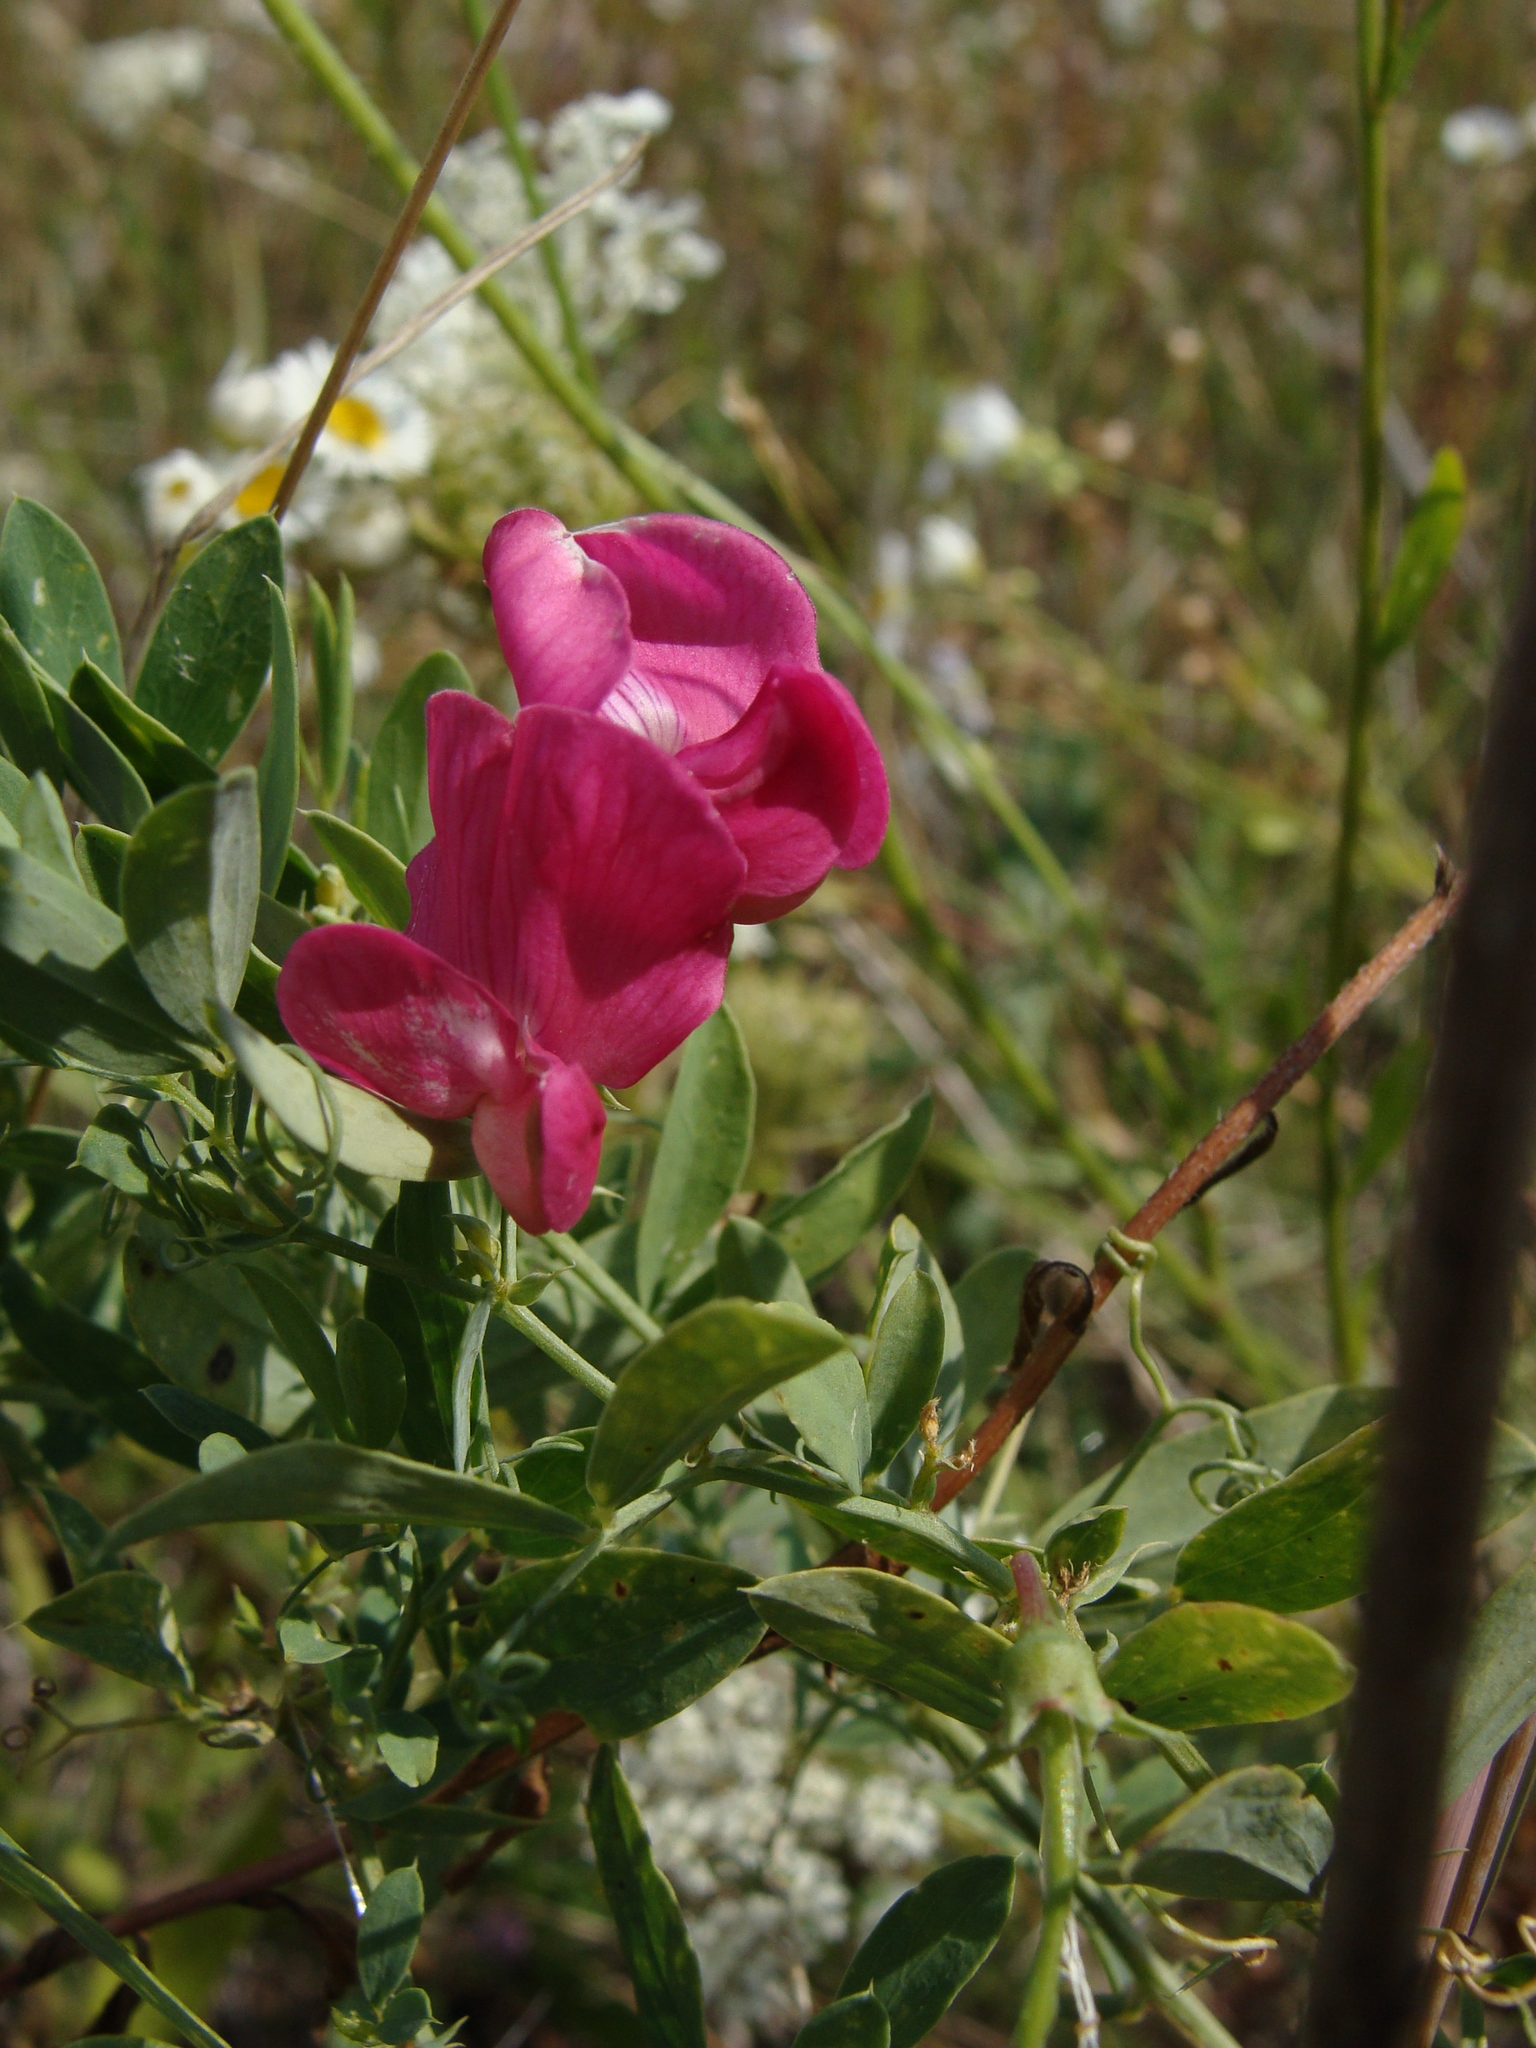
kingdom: Plantae
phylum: Tracheophyta
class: Magnoliopsida
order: Fabales
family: Fabaceae
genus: Lathyrus
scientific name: Lathyrus tuberosus
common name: Tuberous pea
